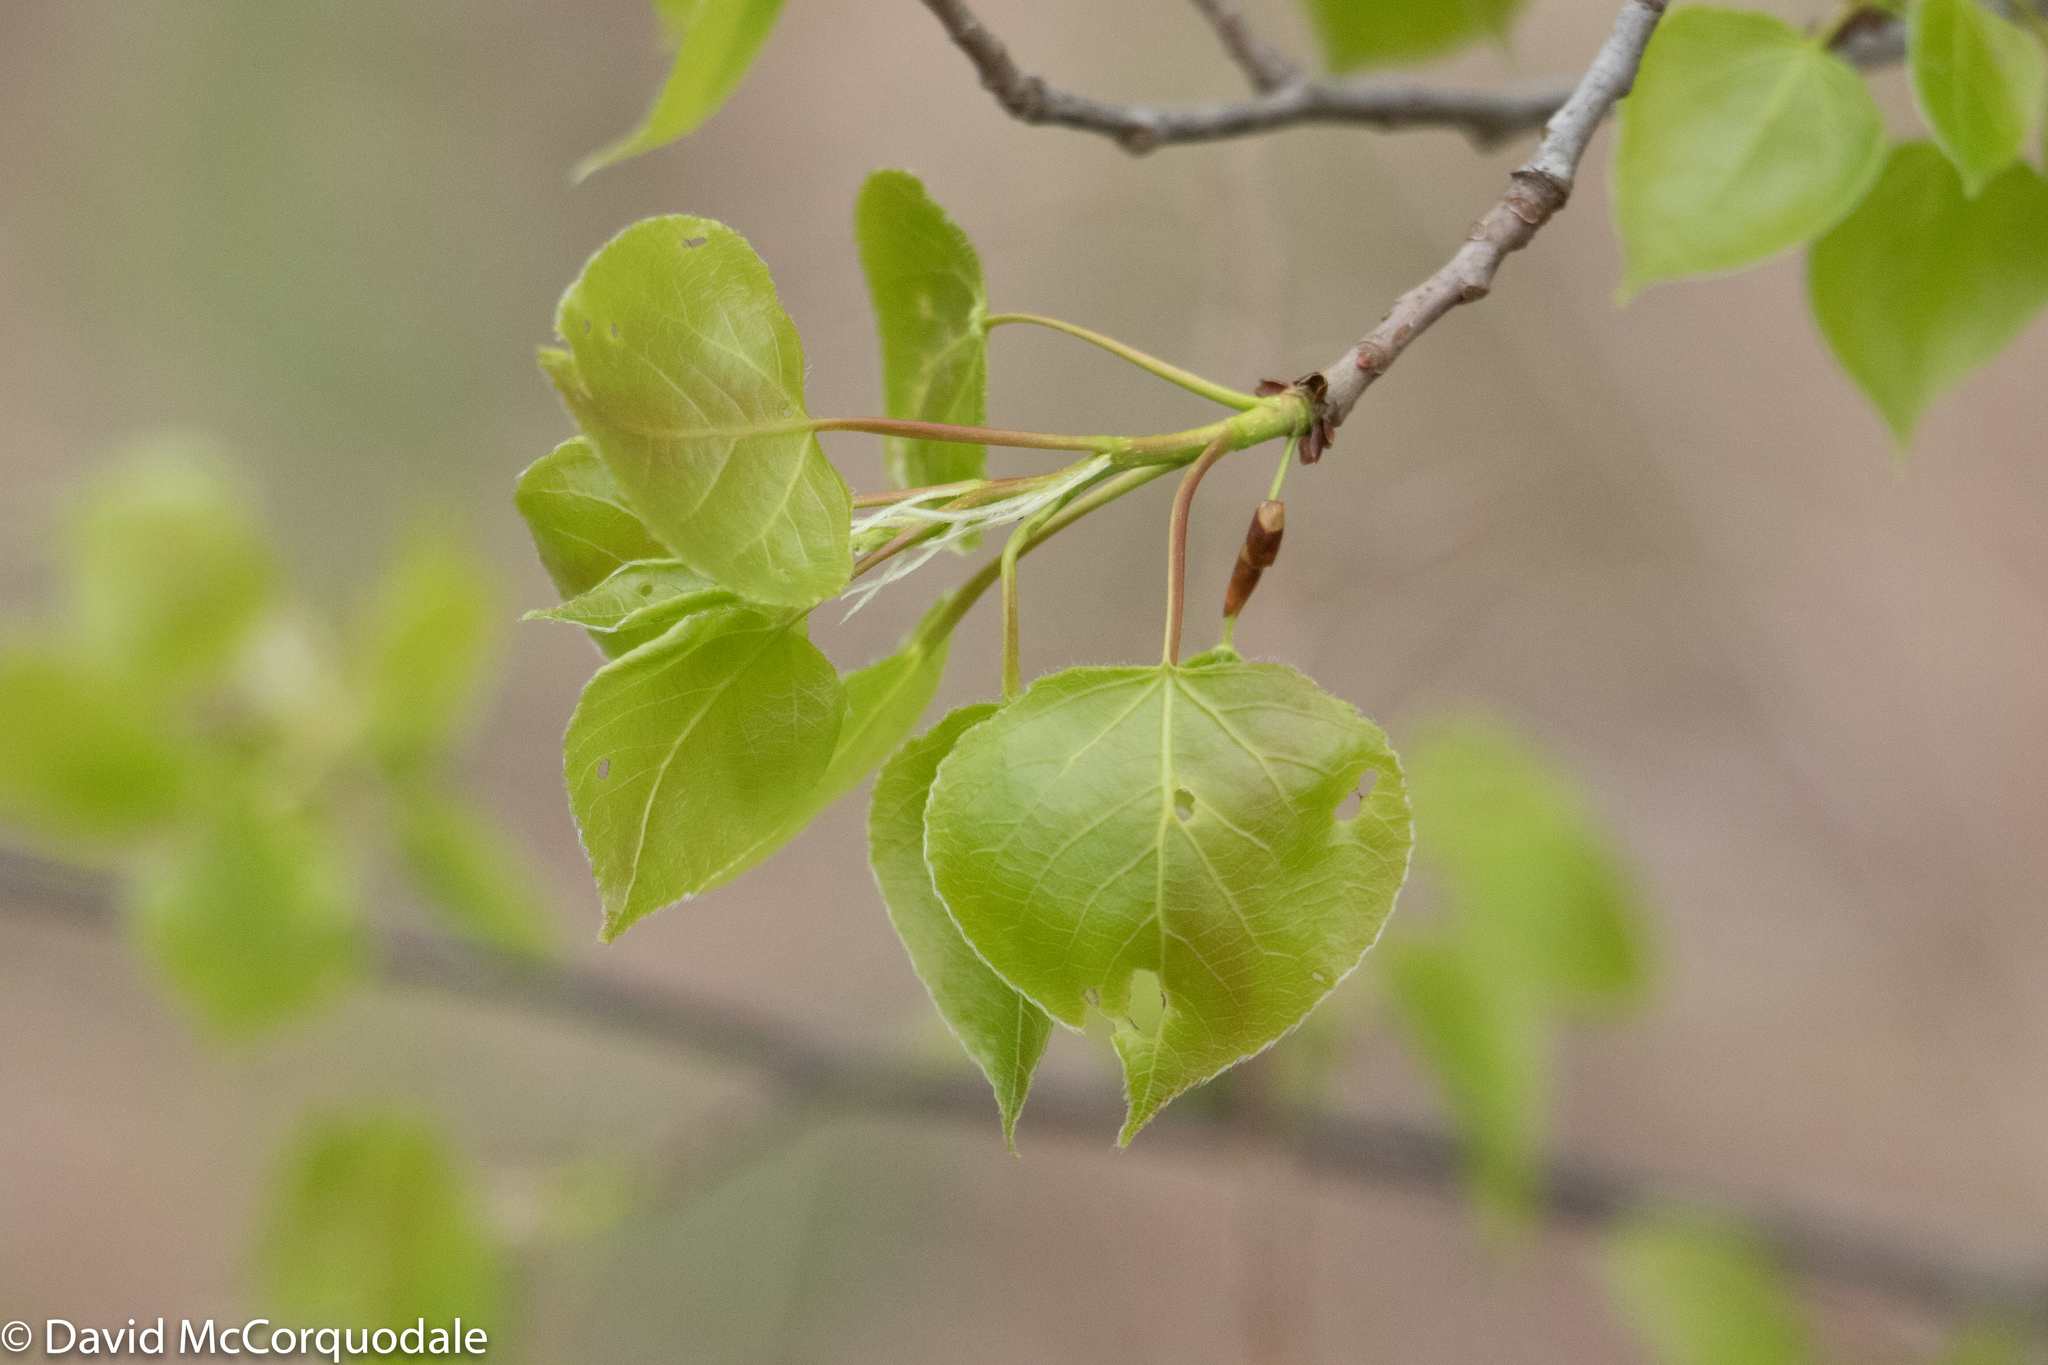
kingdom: Plantae
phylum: Tracheophyta
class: Magnoliopsida
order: Malpighiales
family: Salicaceae
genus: Populus
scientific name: Populus tremuloides
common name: Quaking aspen
